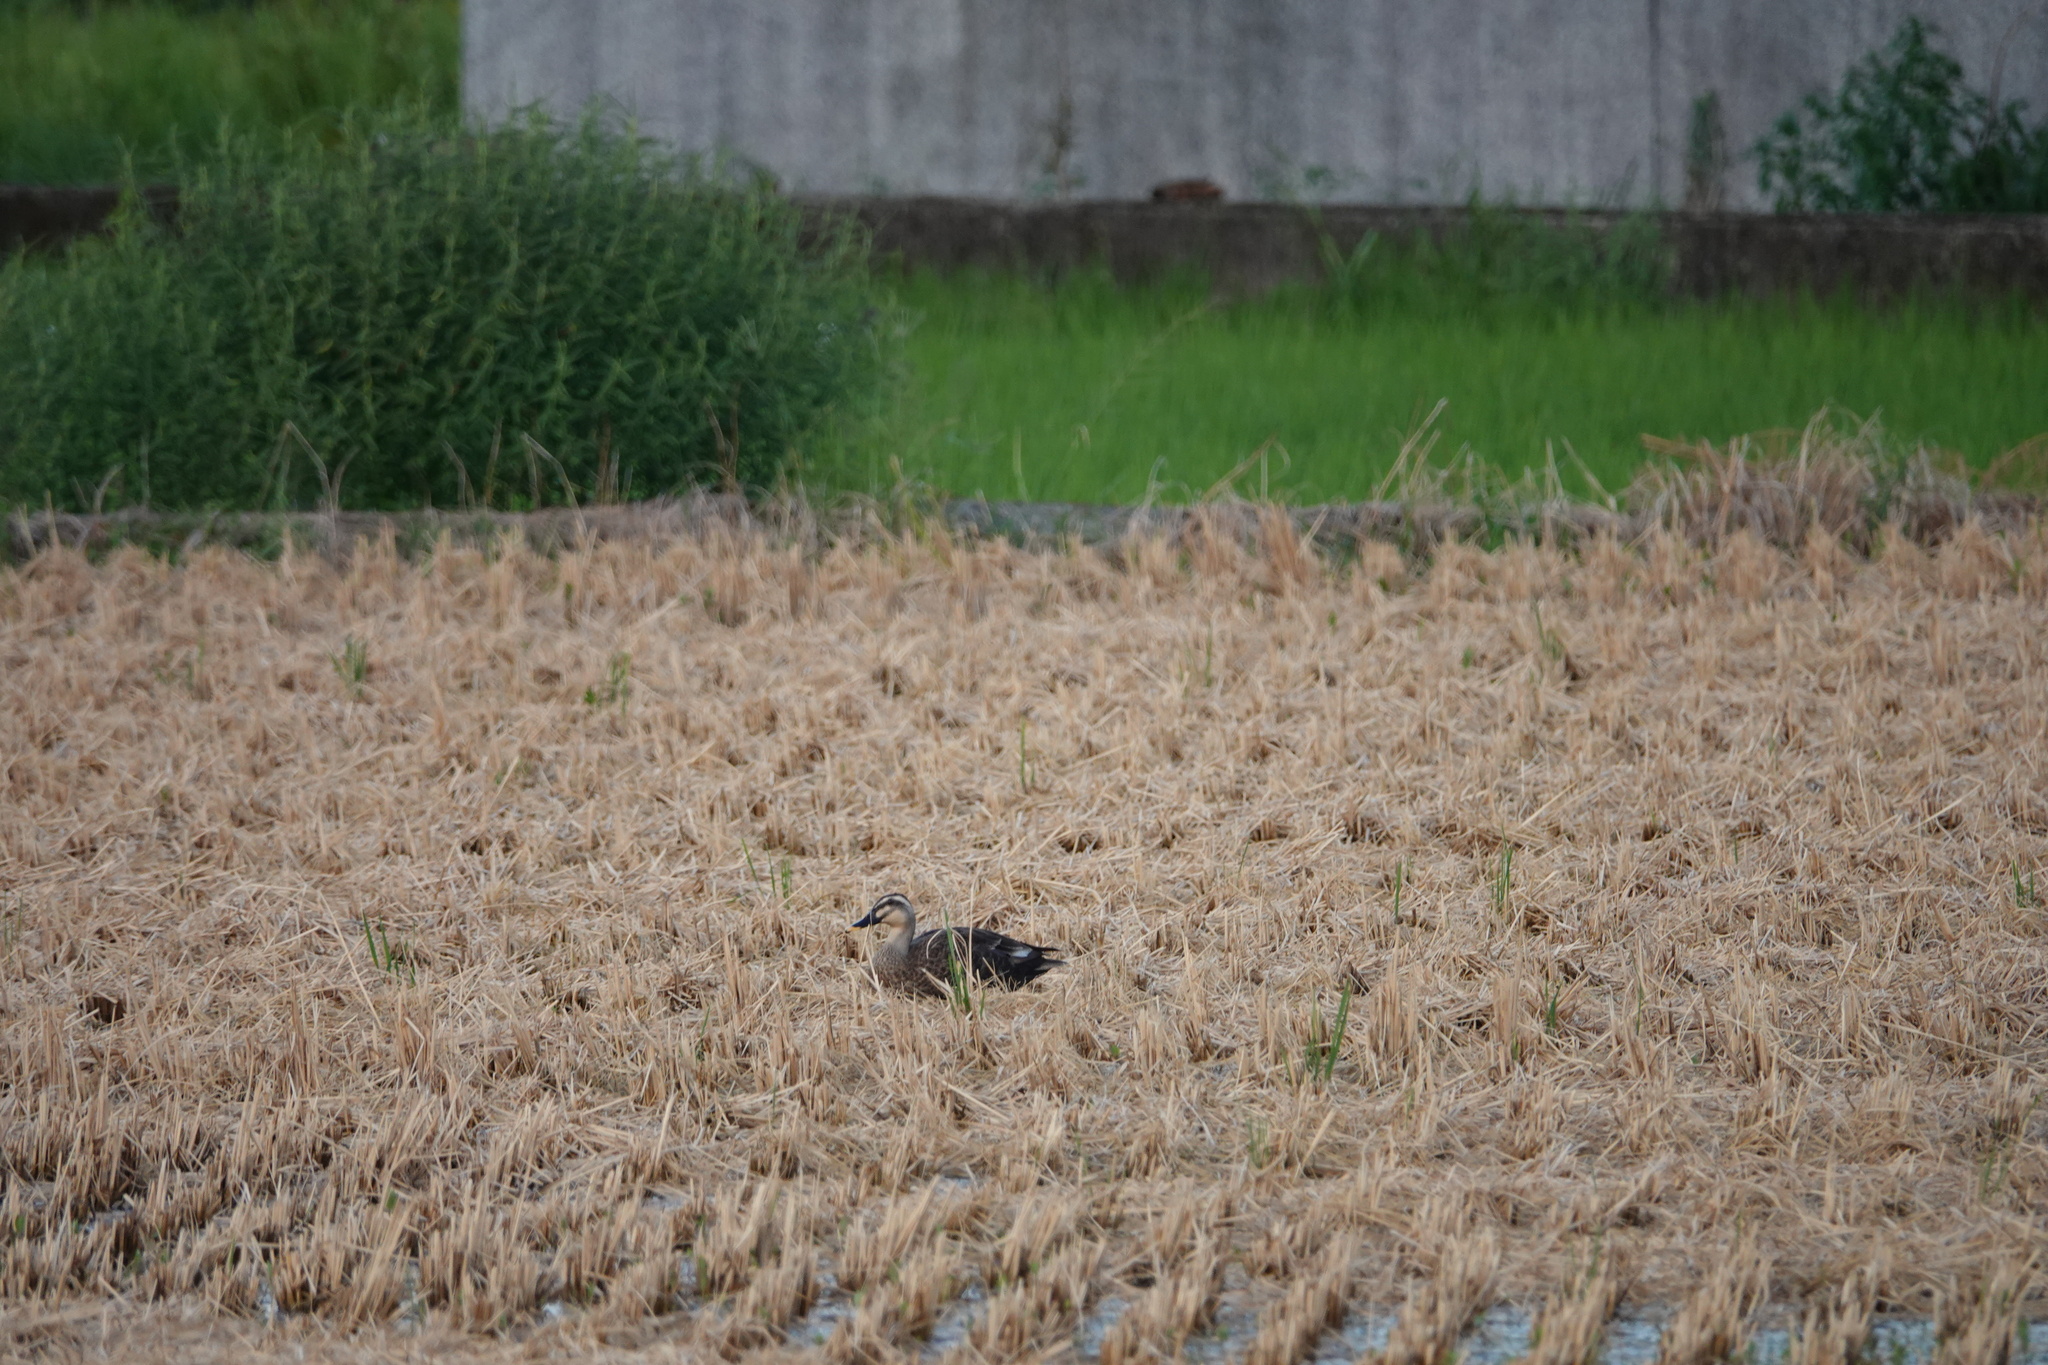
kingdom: Animalia
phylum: Chordata
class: Aves
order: Anseriformes
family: Anatidae
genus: Anas
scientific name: Anas zonorhyncha
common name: Eastern spot-billed duck
